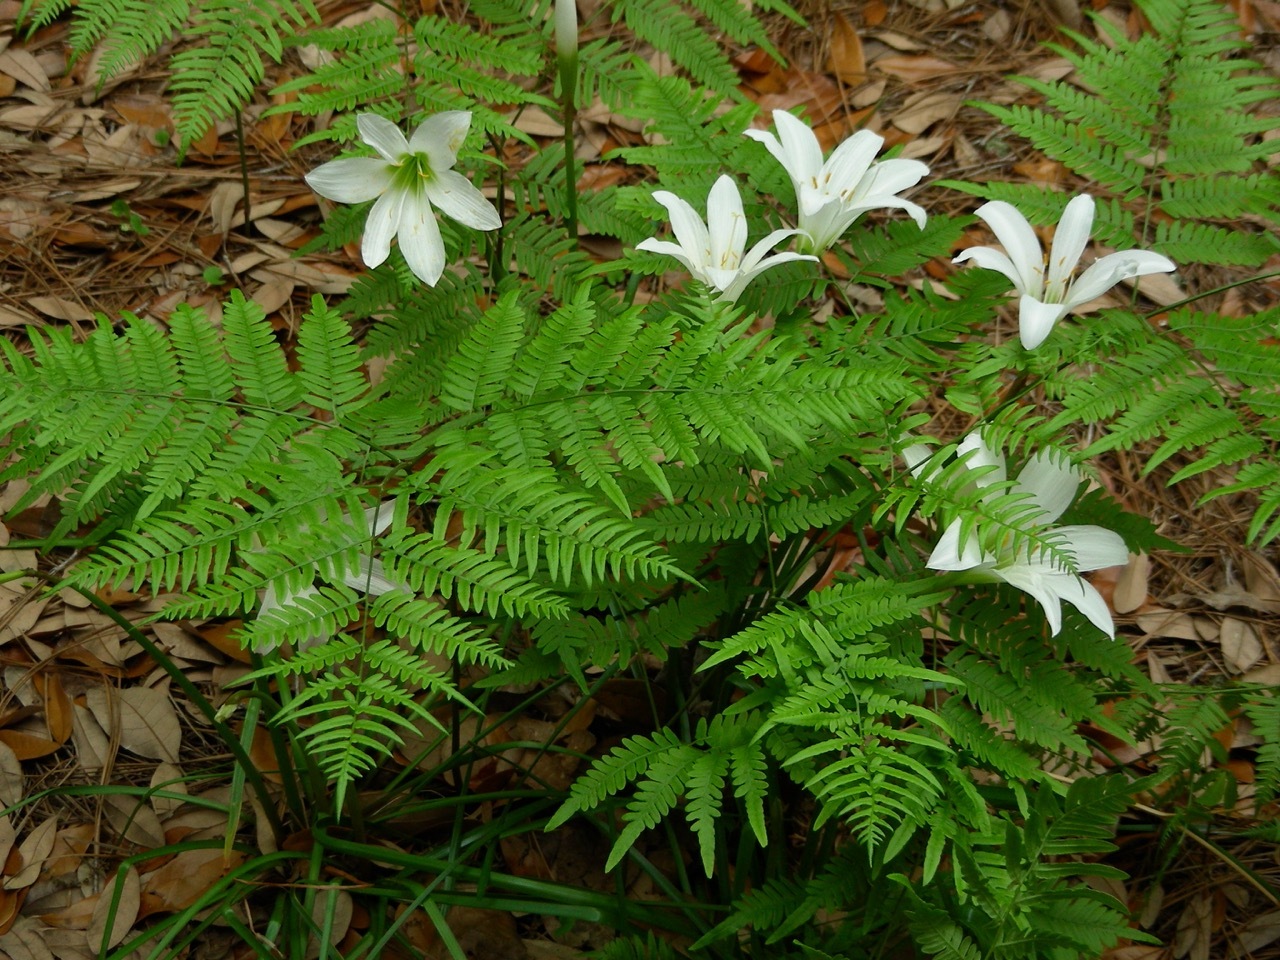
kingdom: Plantae
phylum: Tracheophyta
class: Liliopsida
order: Asparagales
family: Amaryllidaceae
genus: Zephyranthes
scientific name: Zephyranthes atamasco
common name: Atamasco lily
